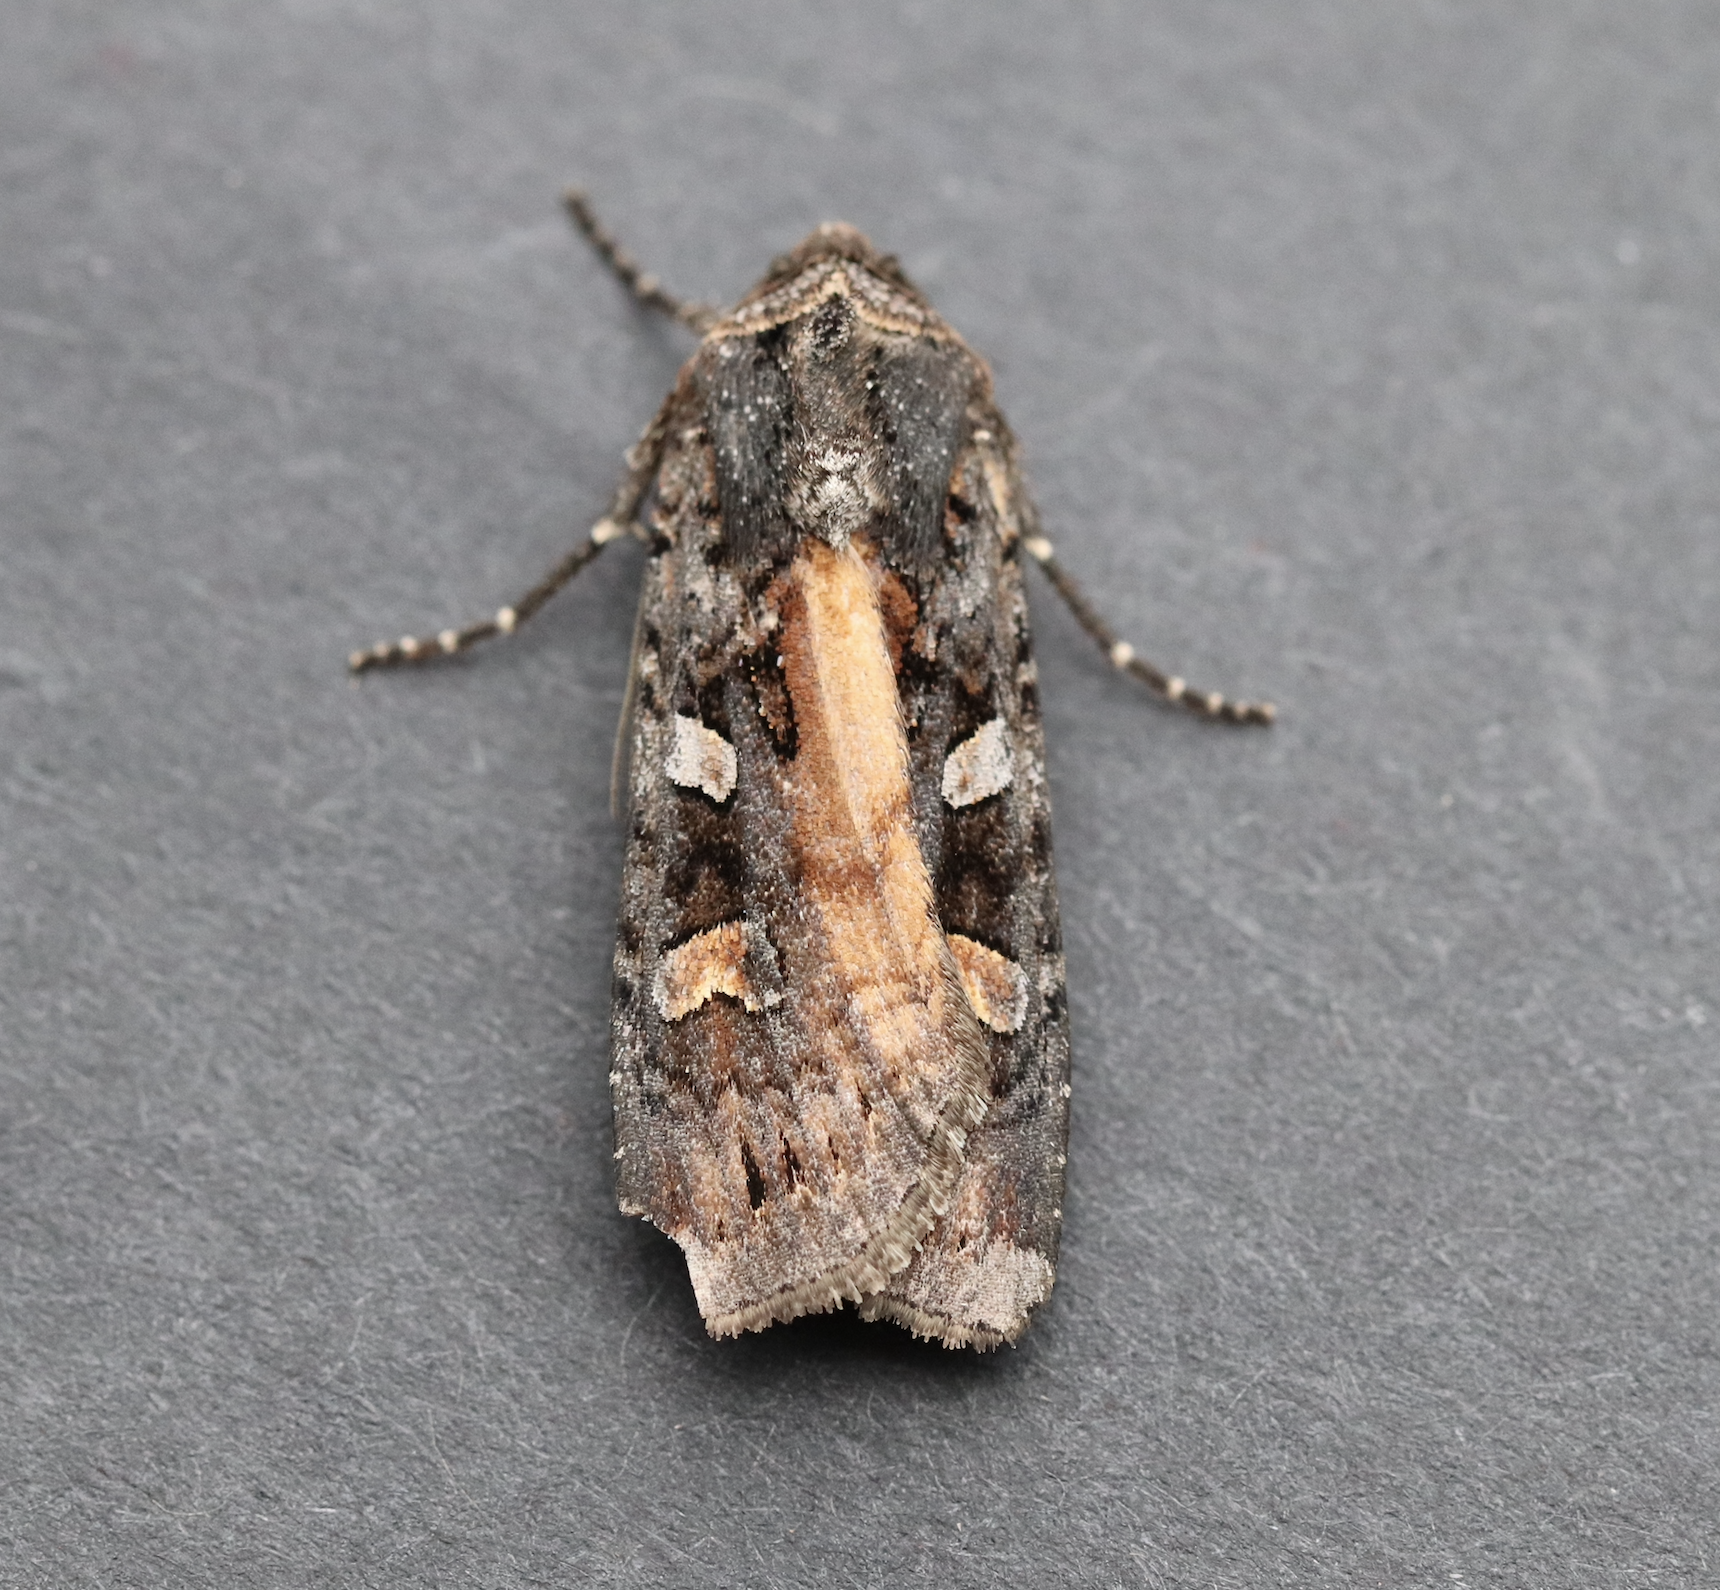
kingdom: Animalia
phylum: Arthropoda
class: Insecta
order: Lepidoptera
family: Noctuidae
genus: Actebia
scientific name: Actebia fennica
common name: Eversmann's rustic
